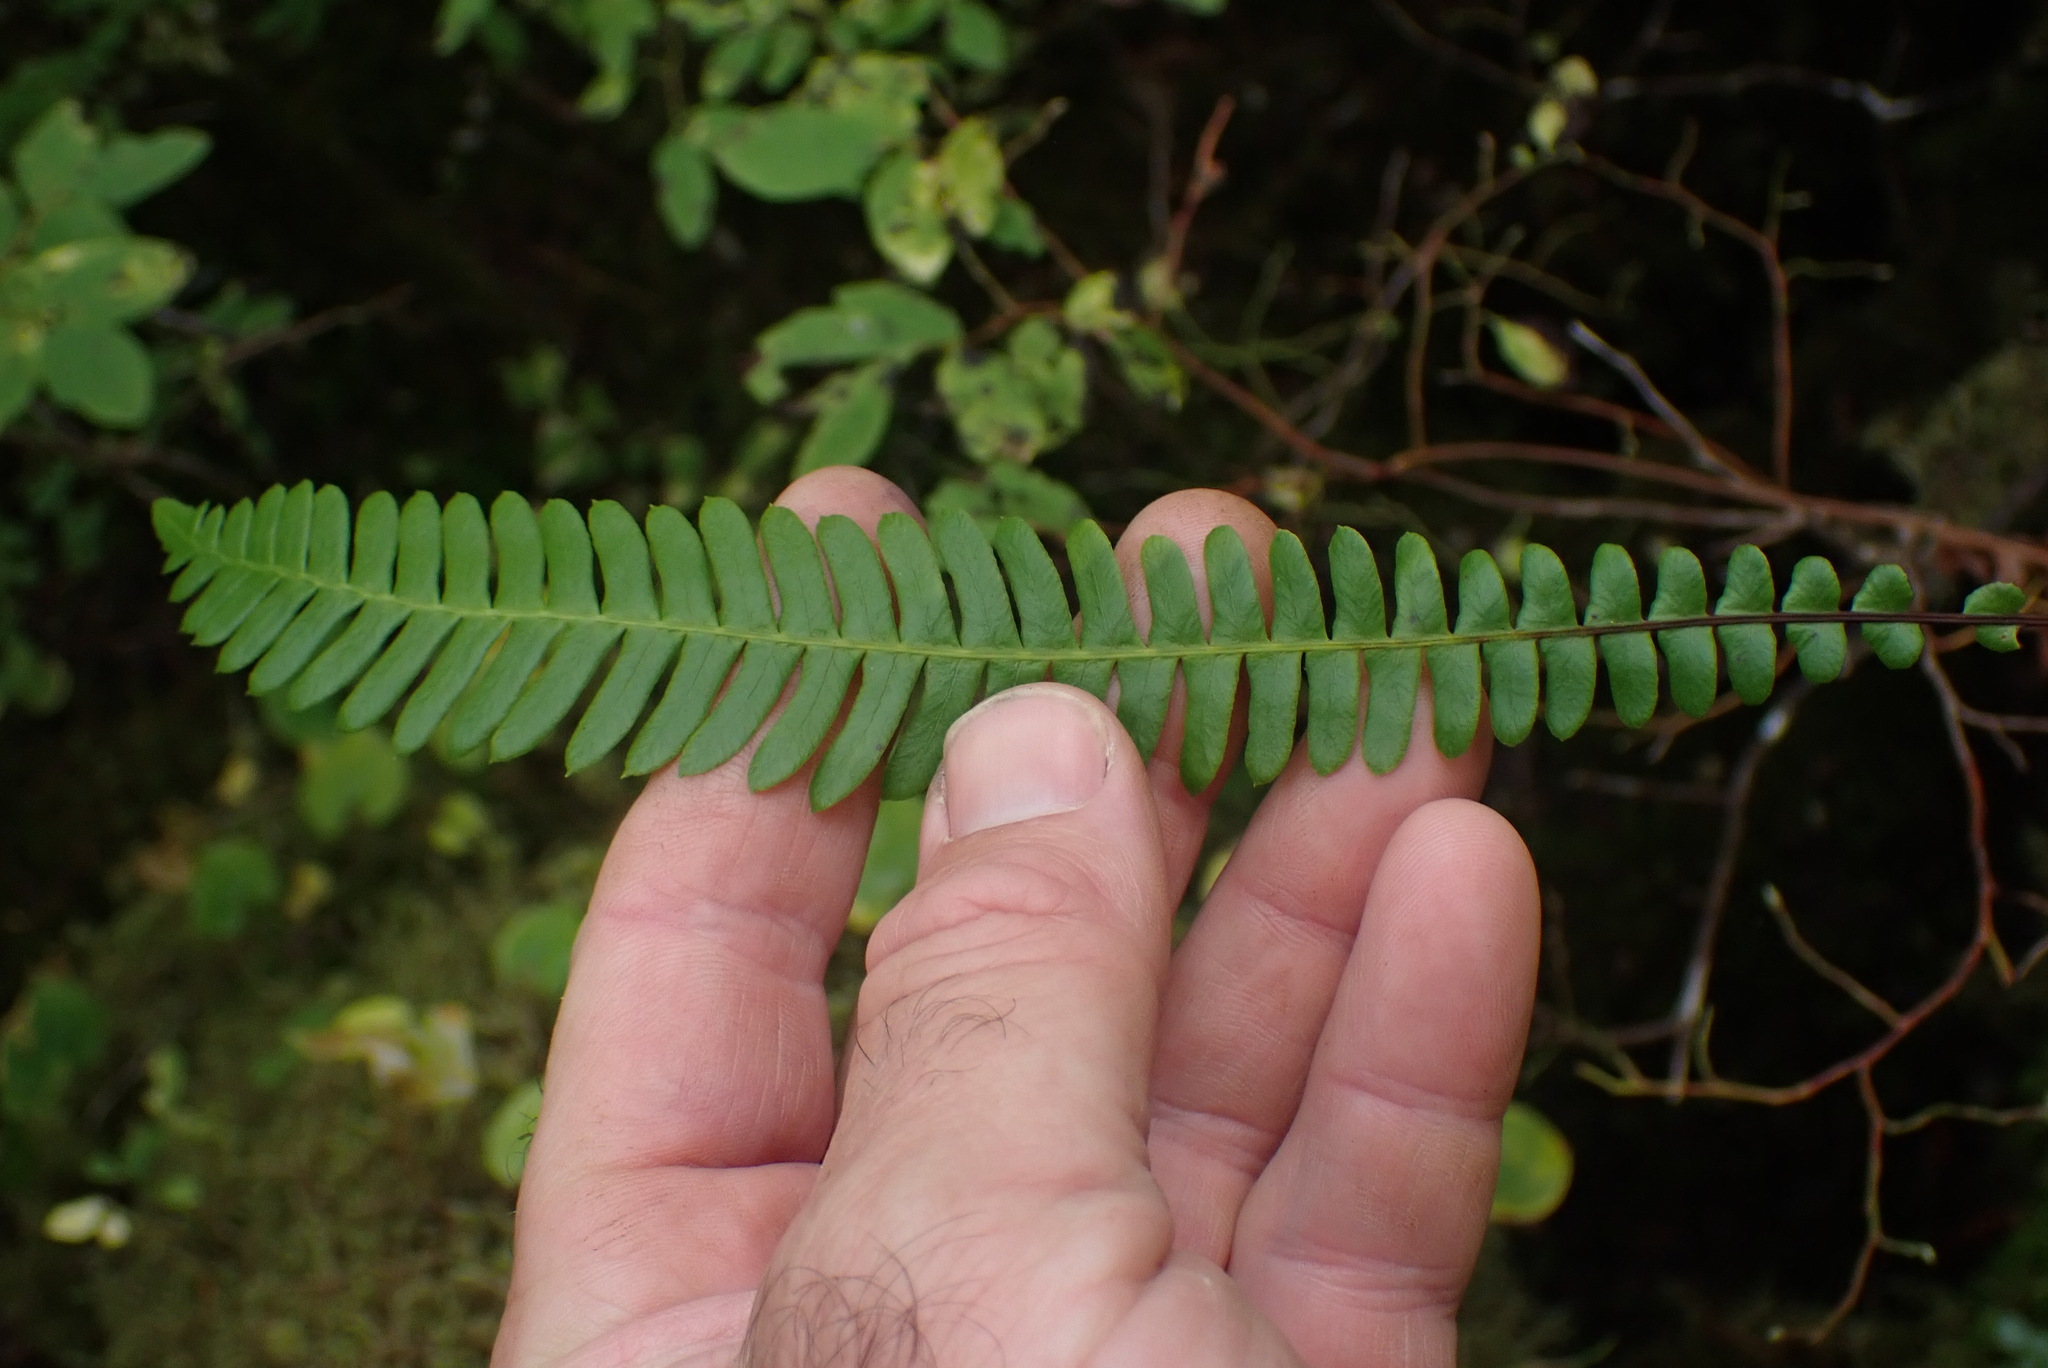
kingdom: Plantae
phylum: Tracheophyta
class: Polypodiopsida
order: Polypodiales
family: Blechnaceae
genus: Struthiopteris
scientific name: Struthiopteris spicant
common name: Deer fern
